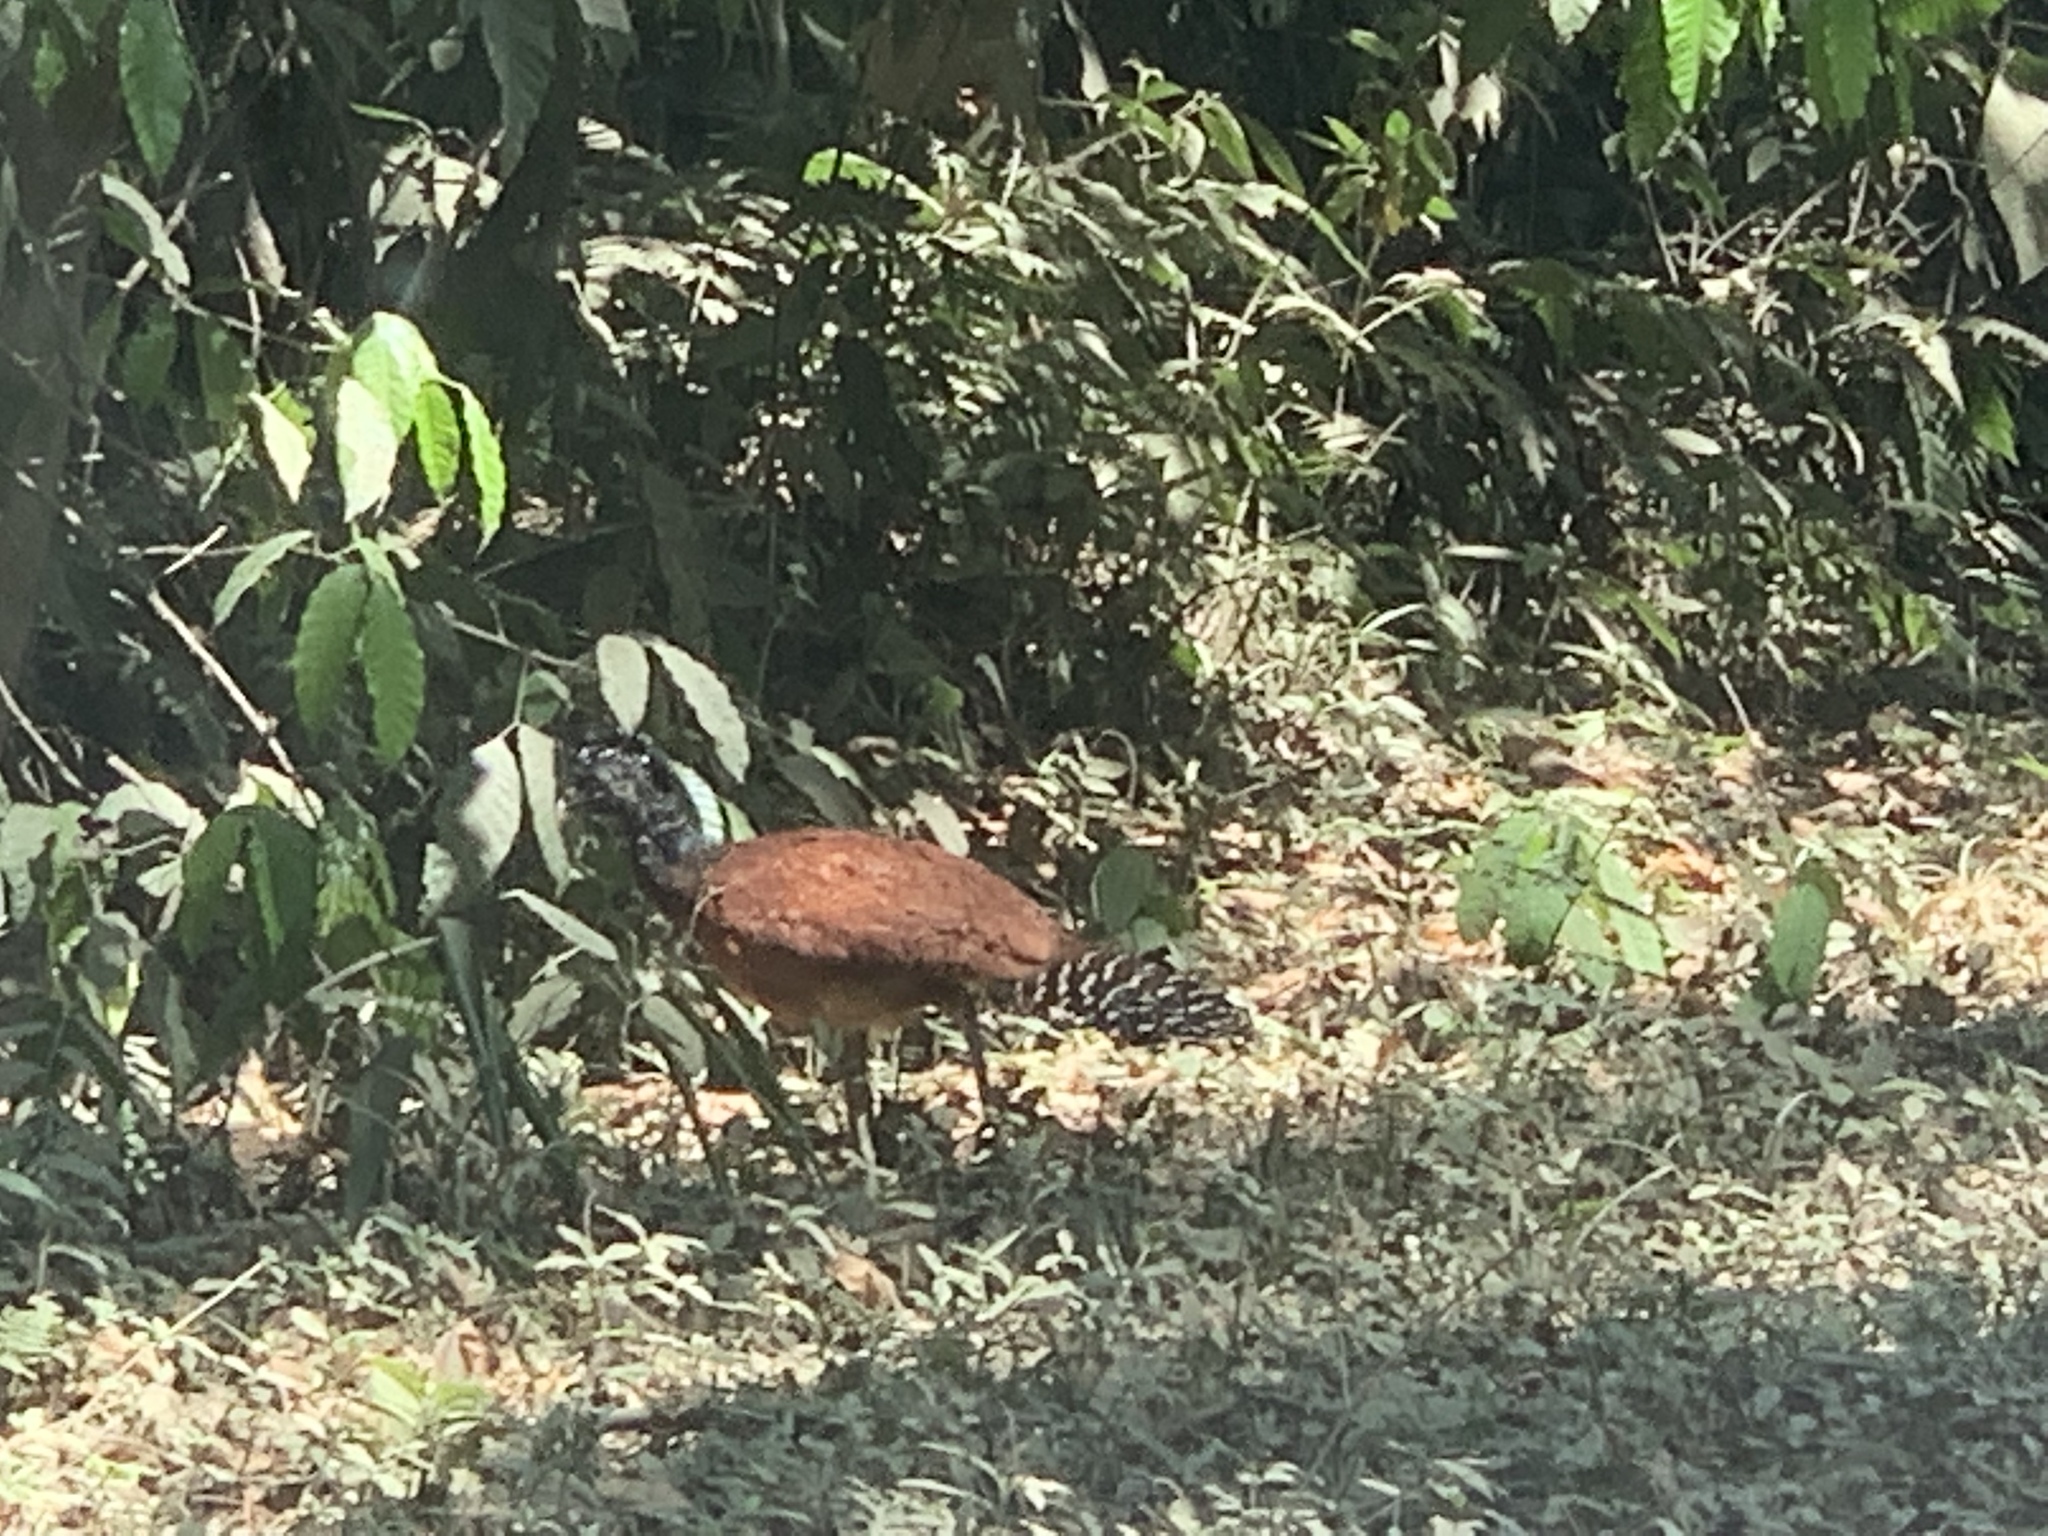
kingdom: Animalia
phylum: Chordata
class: Aves
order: Galliformes
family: Cracidae
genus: Crax
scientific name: Crax rubra
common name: Great curassow
